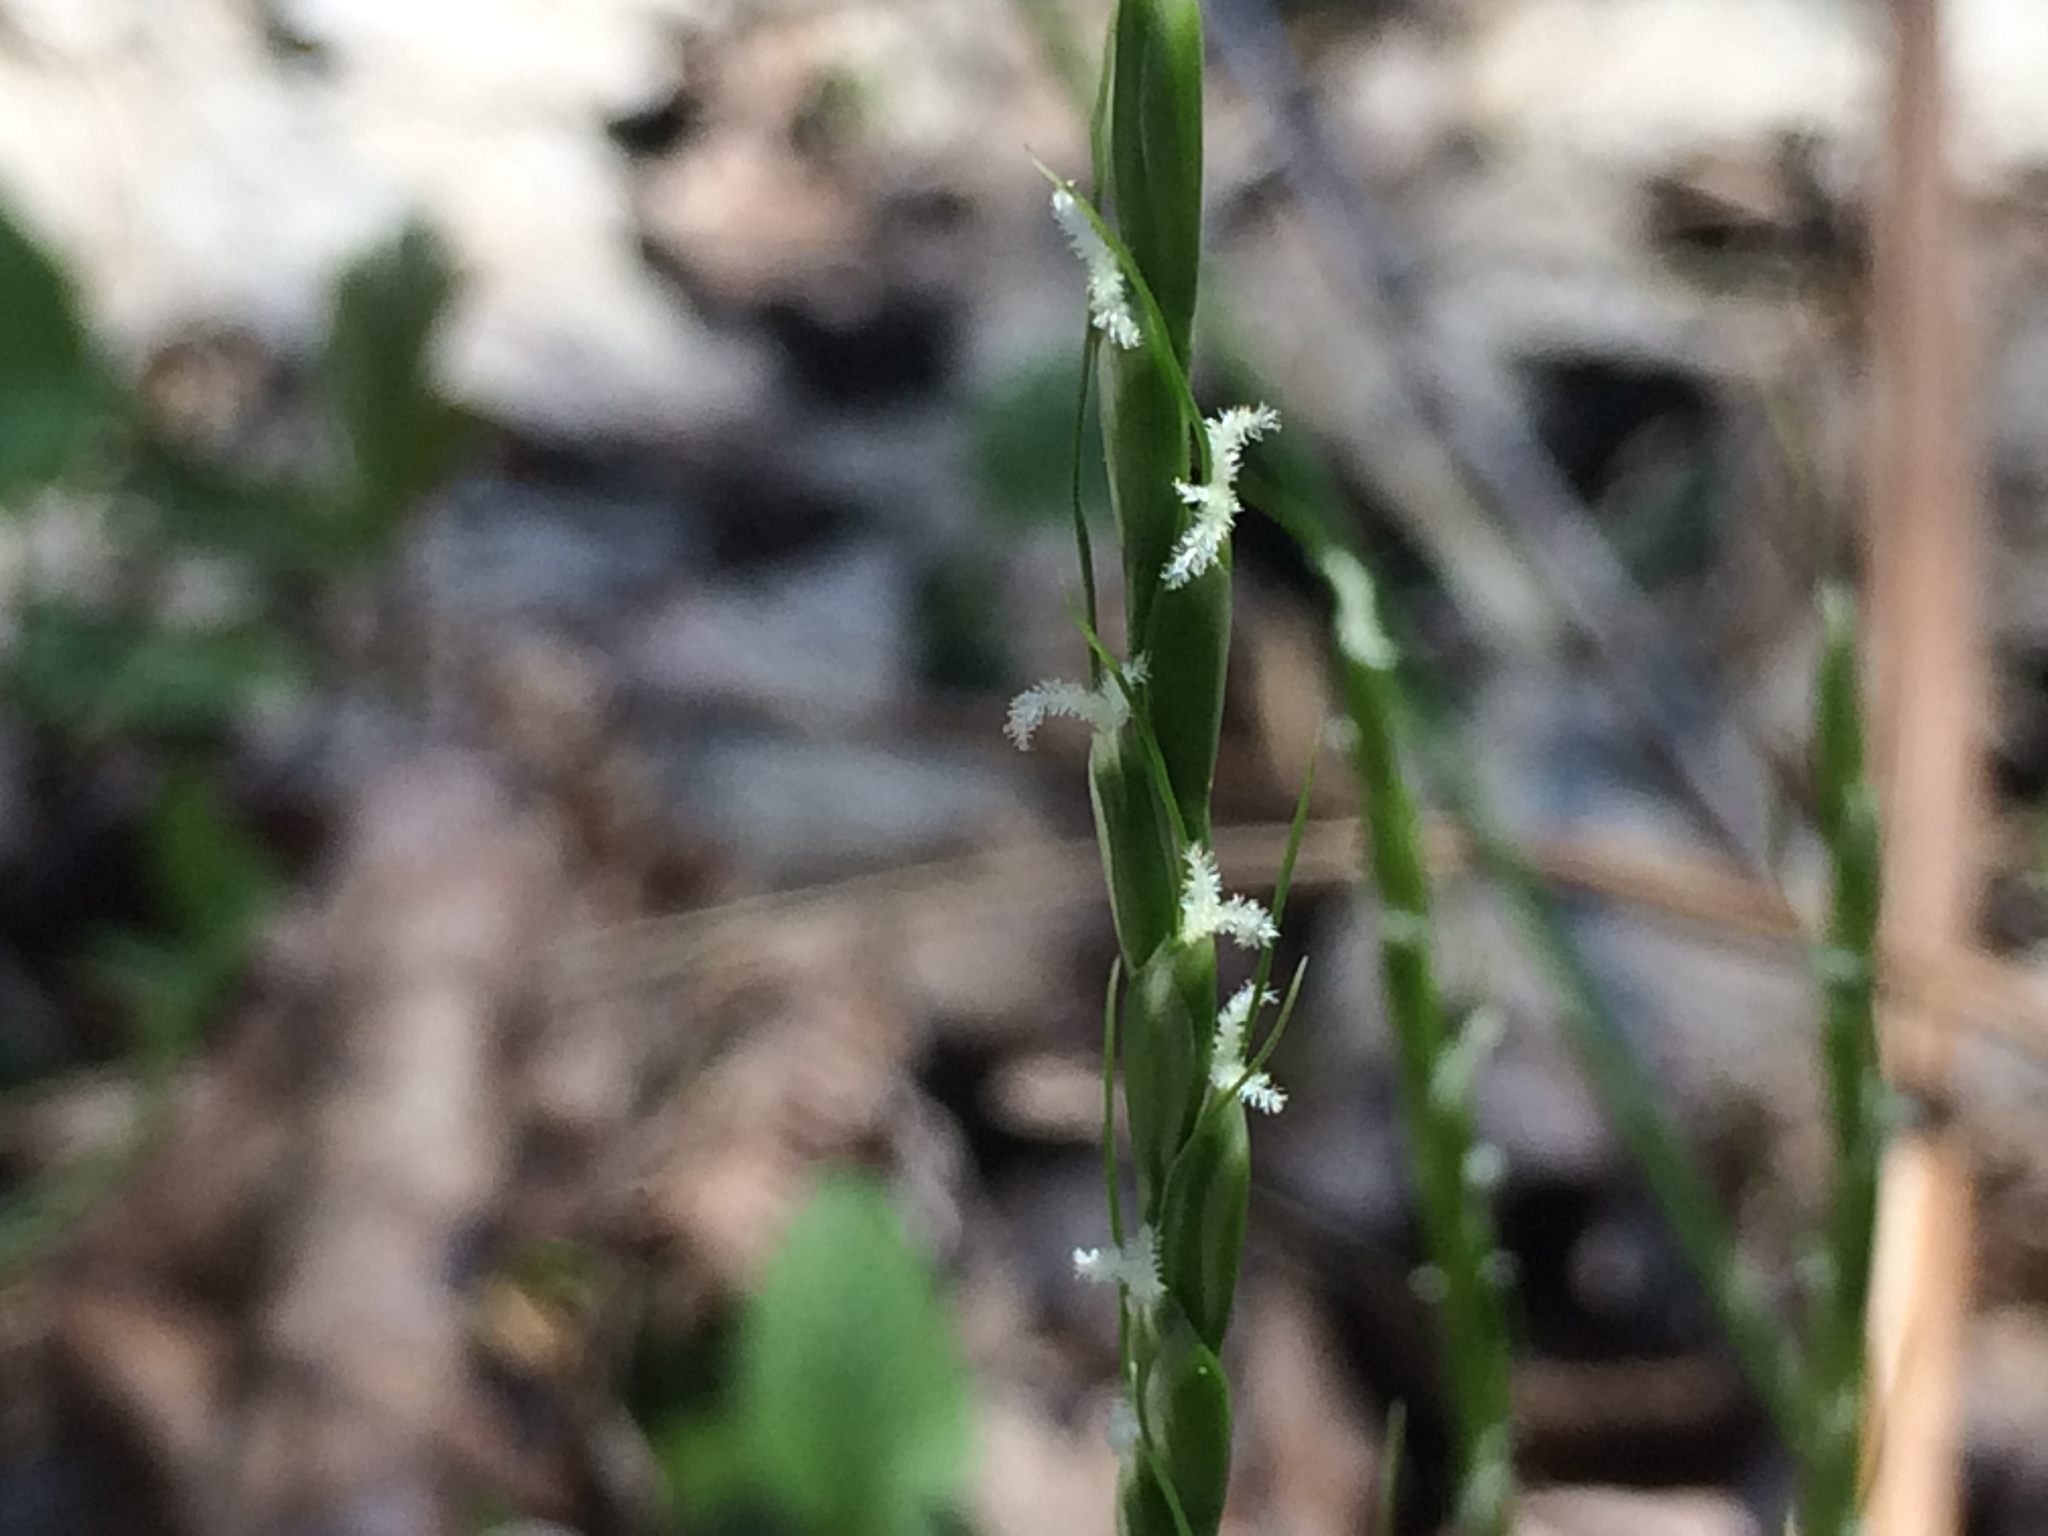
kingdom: Plantae
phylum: Tracheophyta
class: Liliopsida
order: Poales
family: Poaceae
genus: Oryzopsis
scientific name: Oryzopsis asperifolia
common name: Rough-leaved mountain rice
